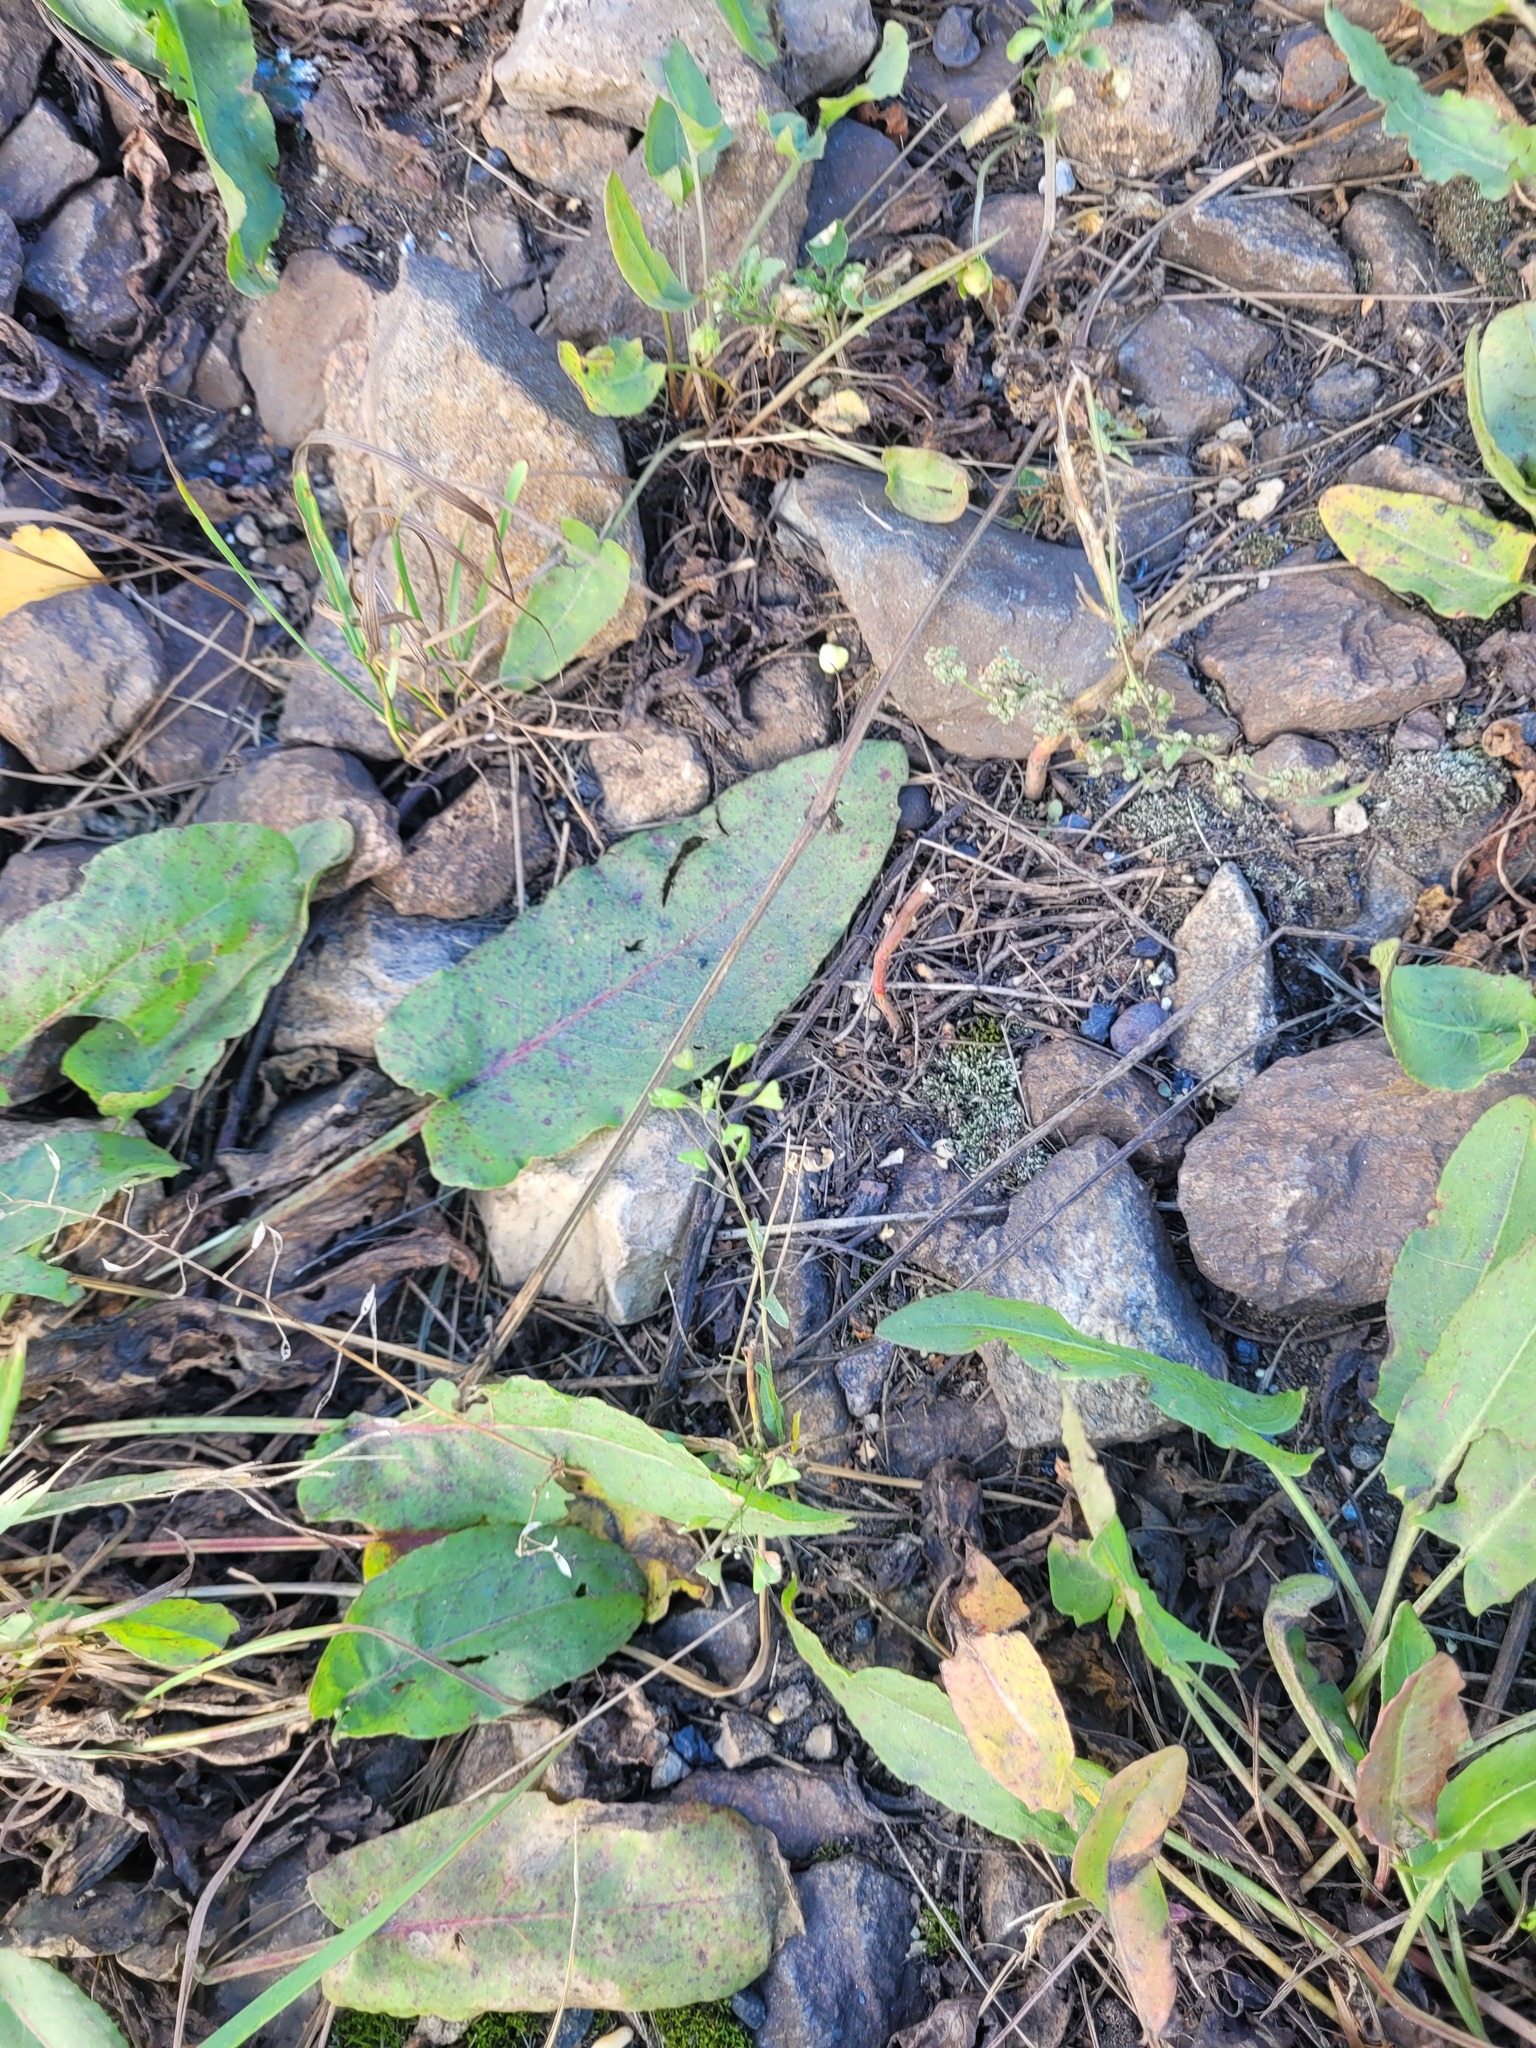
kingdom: Plantae
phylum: Tracheophyta
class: Magnoliopsida
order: Brassicales
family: Brassicaceae
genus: Capsella
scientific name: Capsella bursa-pastoris
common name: Shepherd's purse
